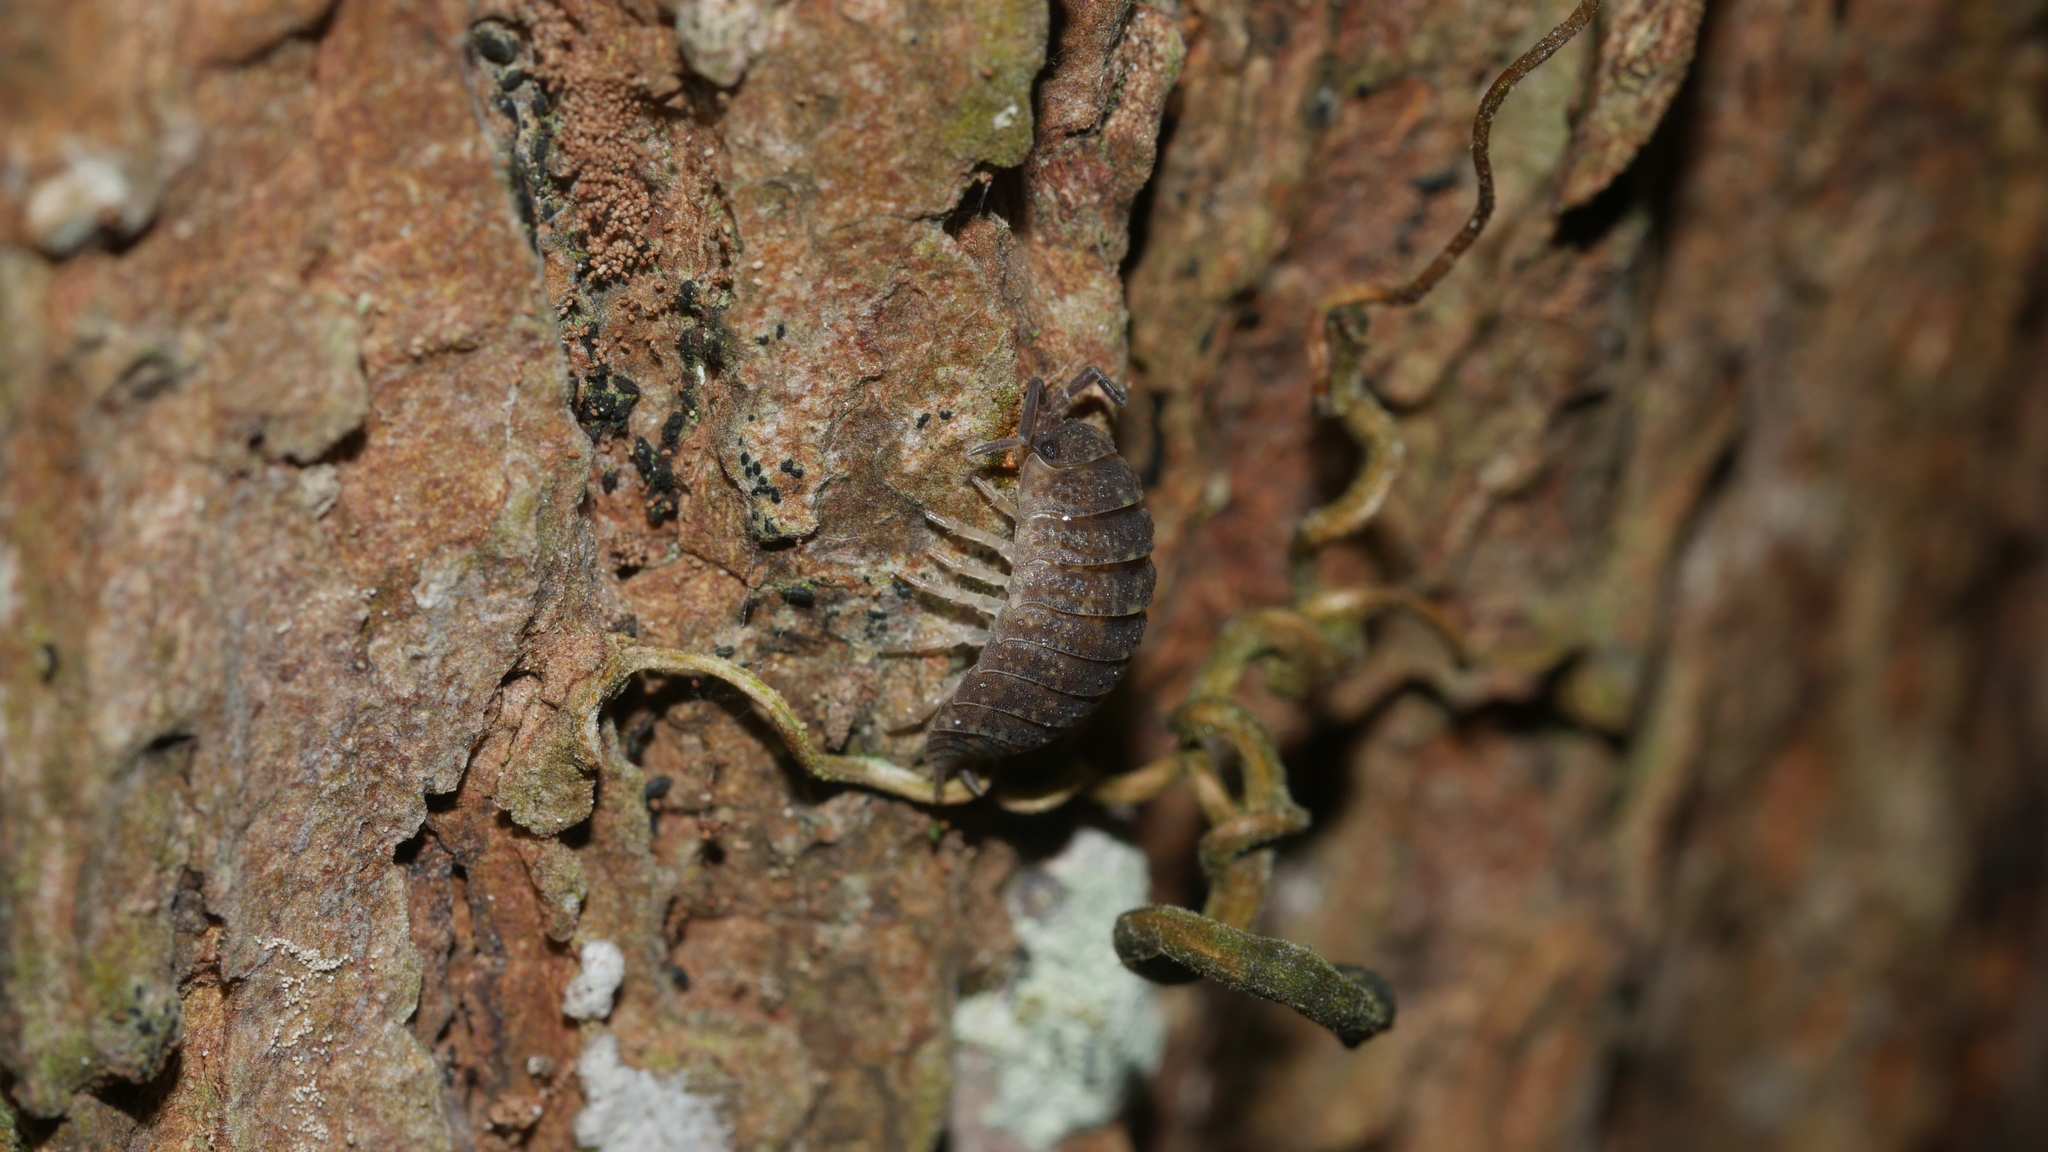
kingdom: Animalia
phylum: Arthropoda
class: Malacostraca
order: Isopoda
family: Porcellionidae
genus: Porcellio
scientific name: Porcellio scaber
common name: Common rough woodlouse
